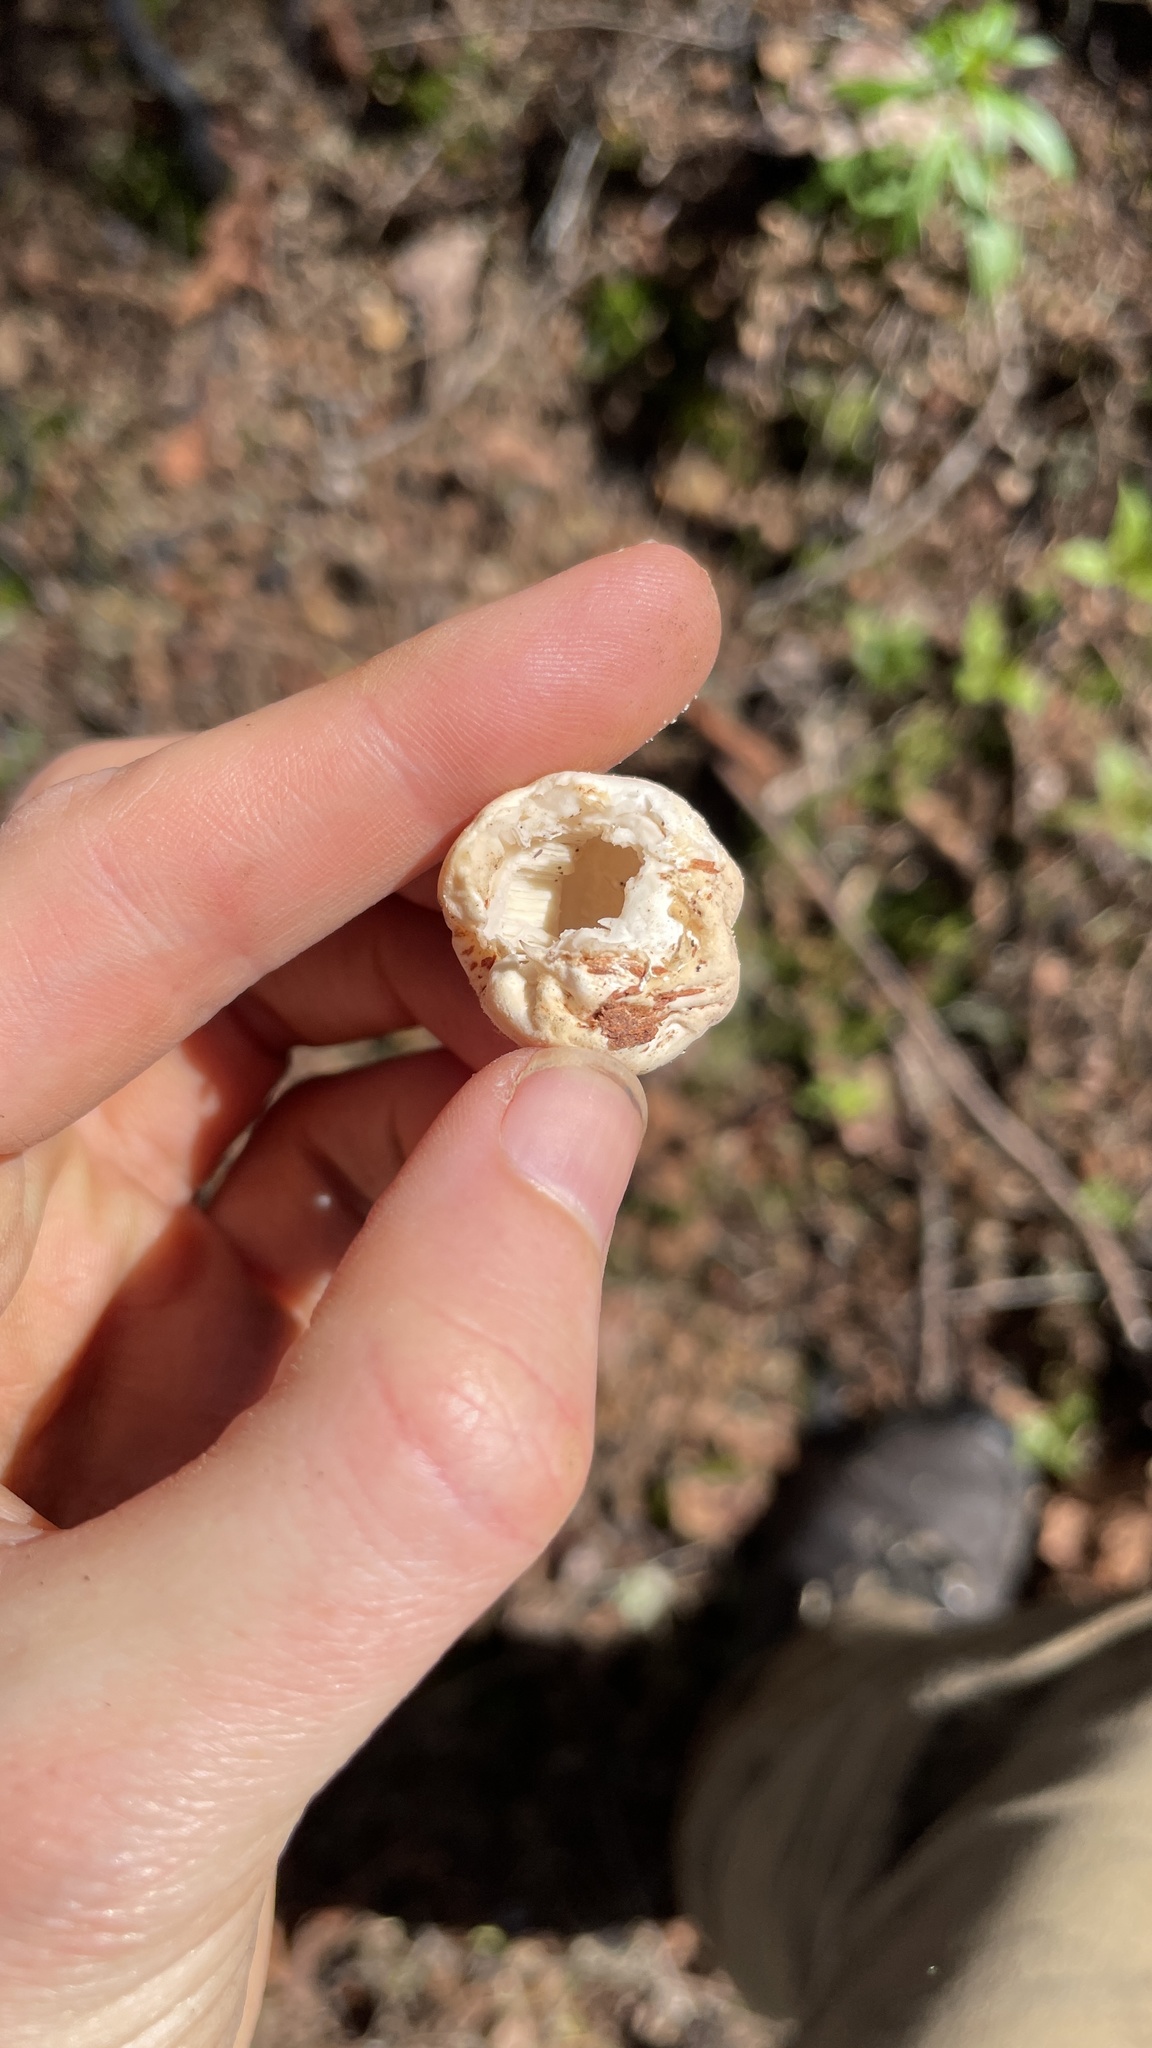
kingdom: Fungi
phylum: Basidiomycota
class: Agaricomycetes
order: Polyporales
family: Polyporaceae
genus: Cryptoporus
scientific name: Cryptoporus volvatus
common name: Veiled polypore
